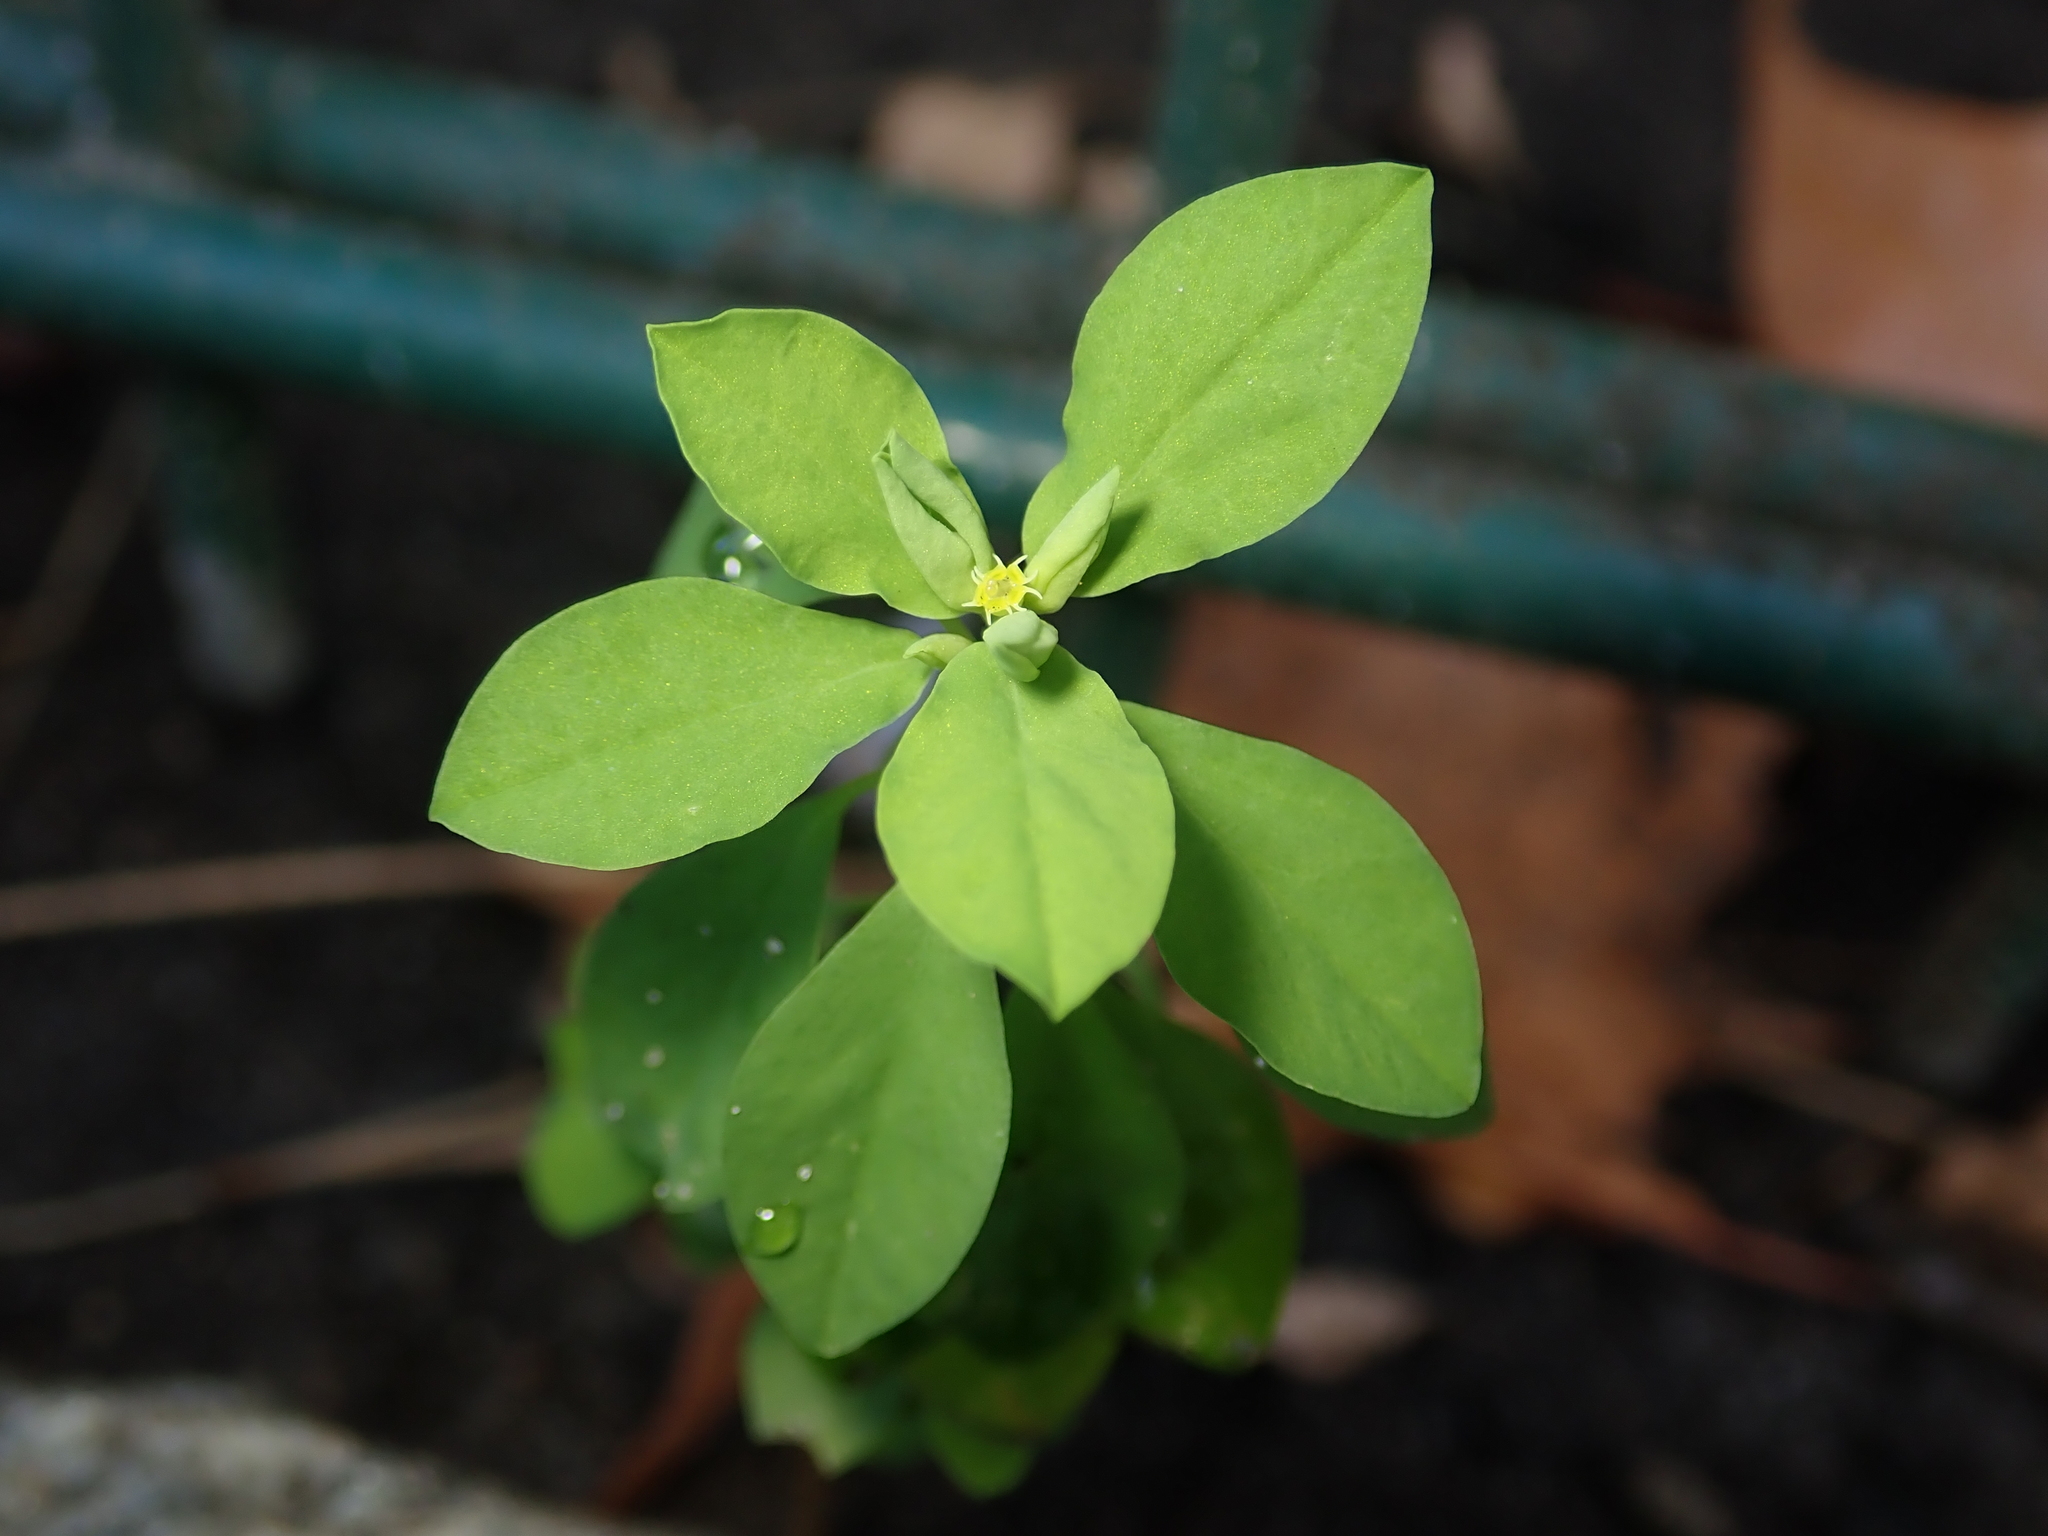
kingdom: Plantae
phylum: Tracheophyta
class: Magnoliopsida
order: Malpighiales
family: Euphorbiaceae
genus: Euphorbia
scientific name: Euphorbia peplus
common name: Petty spurge
